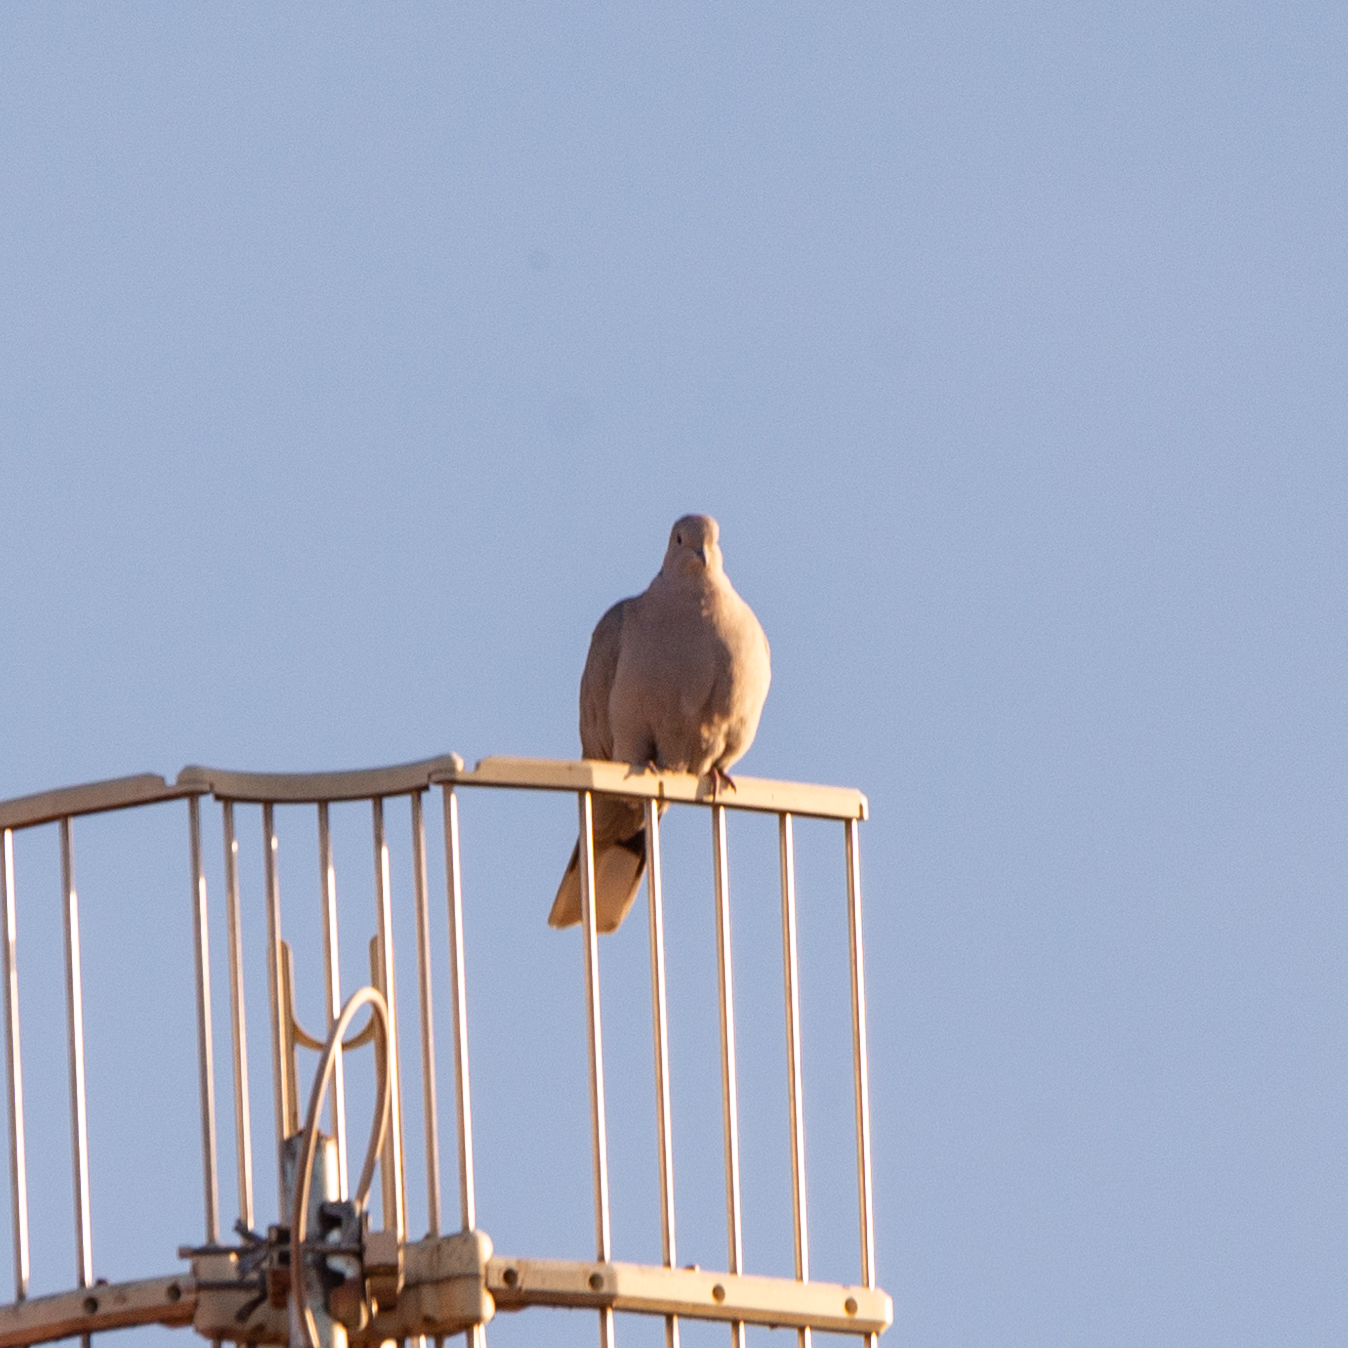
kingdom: Animalia
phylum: Chordata
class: Aves
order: Columbiformes
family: Columbidae
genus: Streptopelia
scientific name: Streptopelia decaocto
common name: Eurasian collared dove
